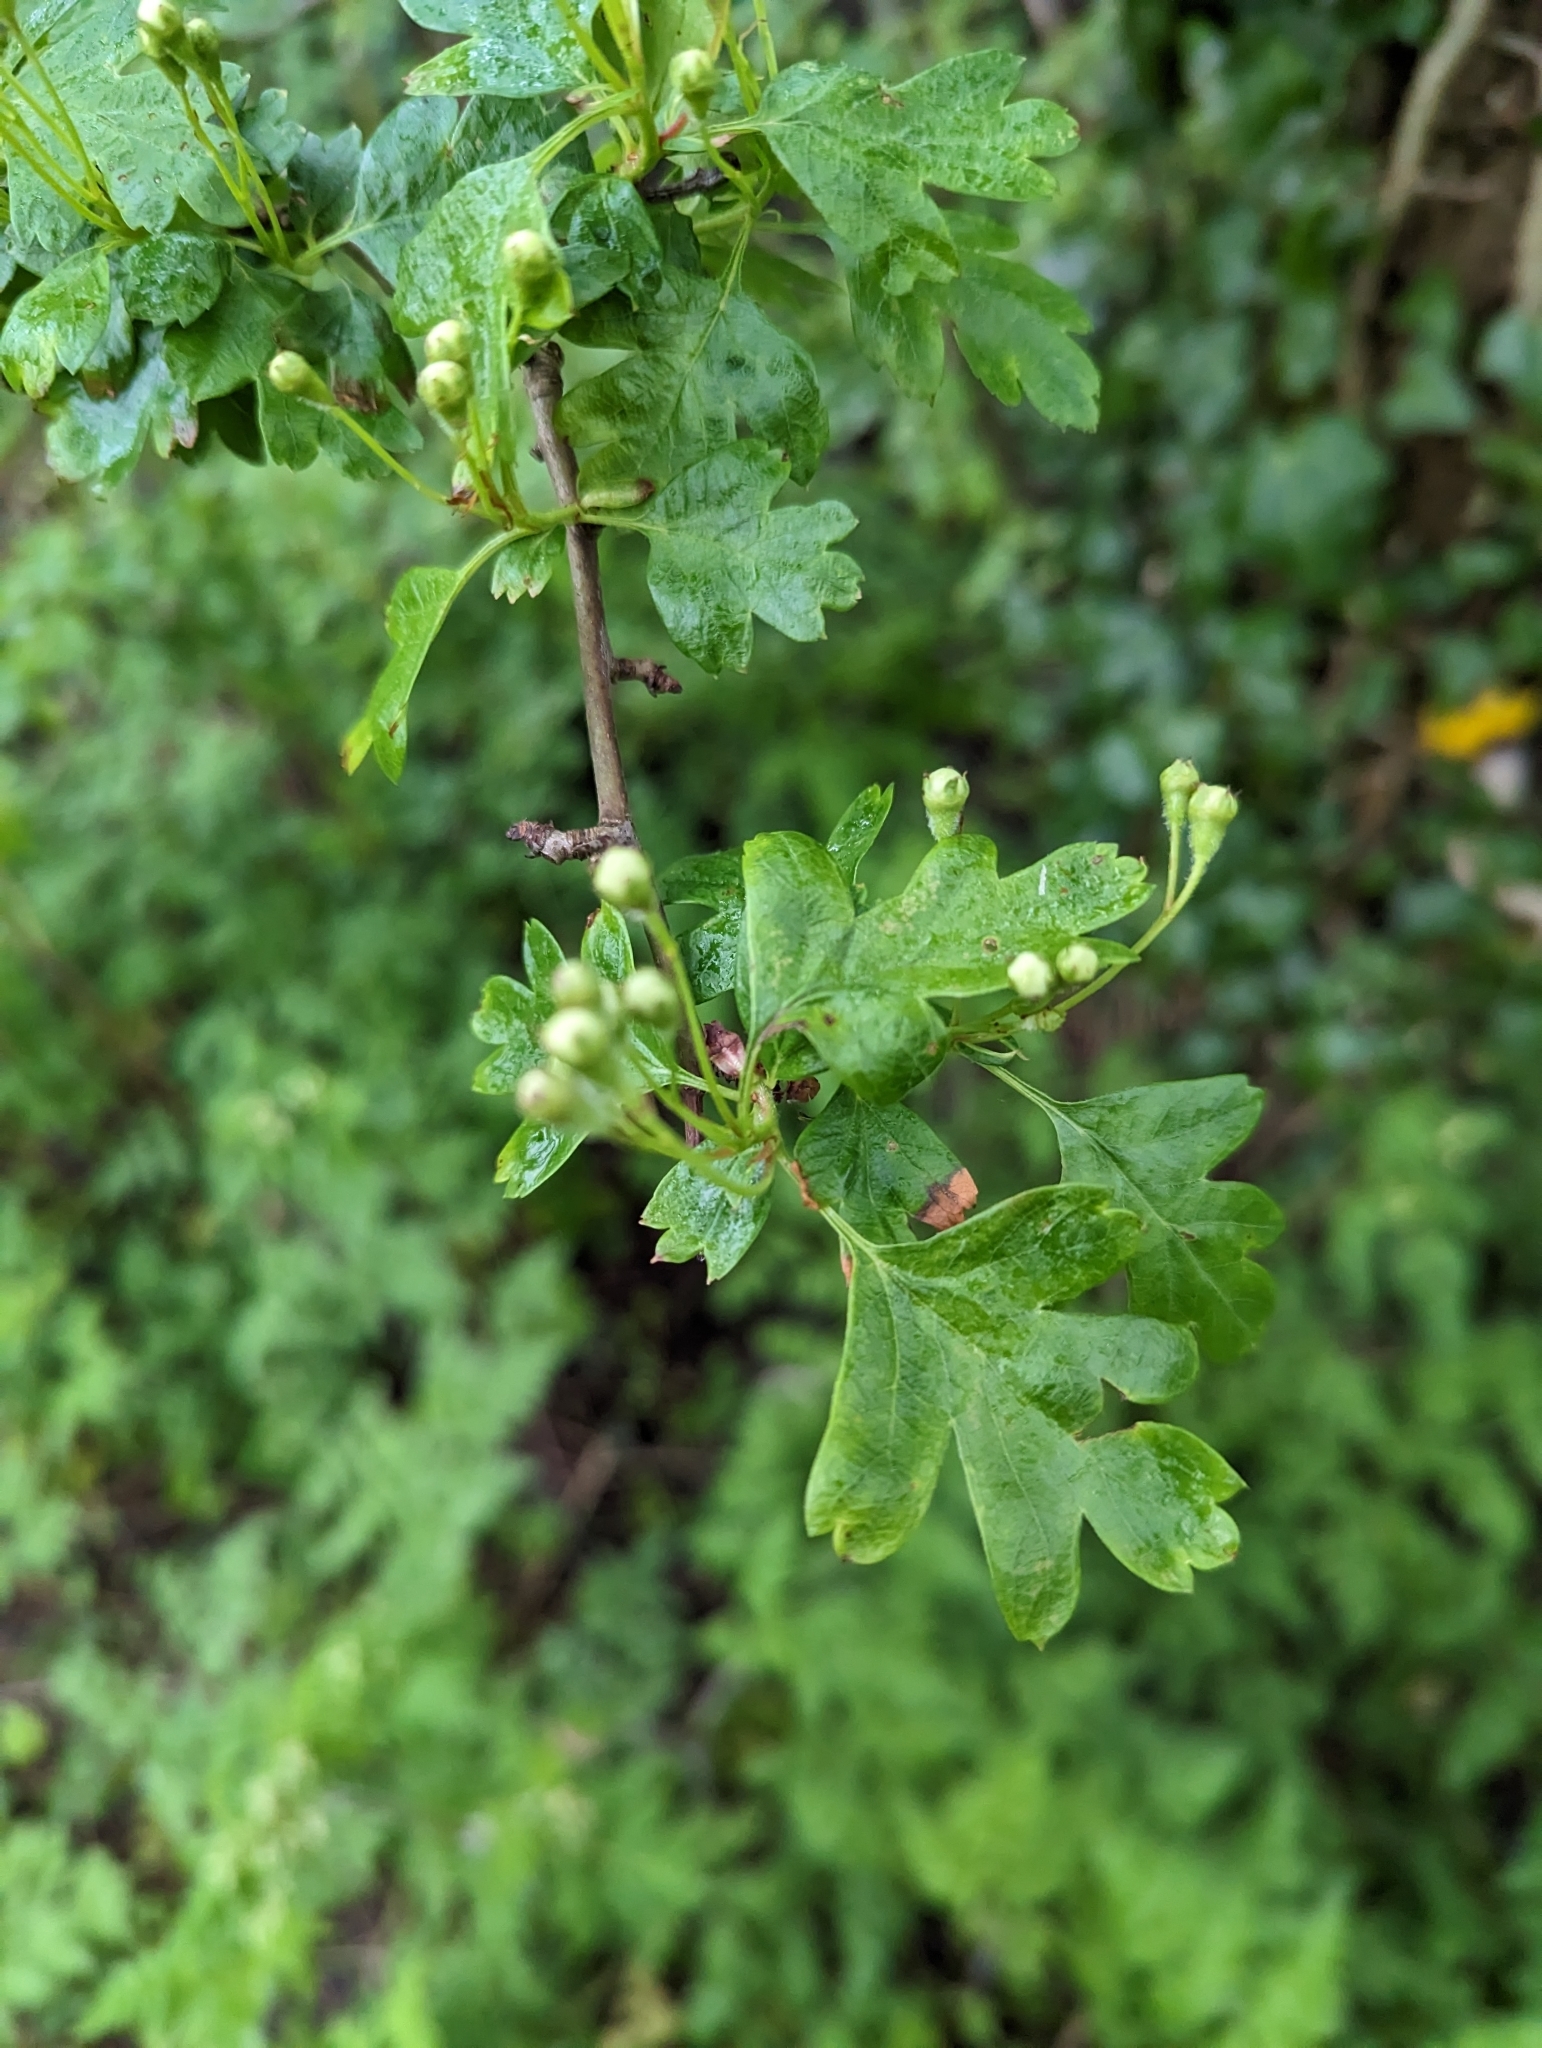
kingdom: Plantae
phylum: Tracheophyta
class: Magnoliopsida
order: Rosales
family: Rosaceae
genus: Crataegus
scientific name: Crataegus monogyna
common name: Hawthorn
